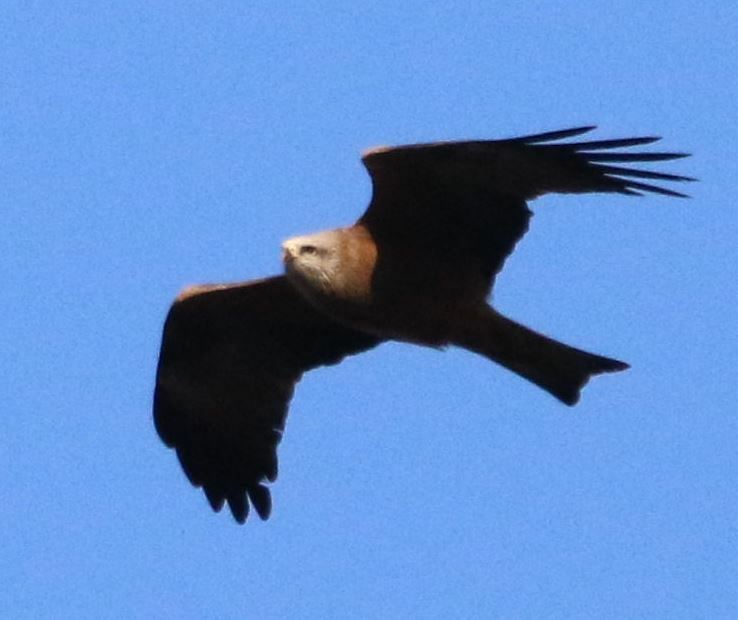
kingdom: Animalia
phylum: Chordata
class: Aves
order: Accipitriformes
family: Accipitridae
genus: Milvus
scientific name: Milvus migrans
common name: Black kite
